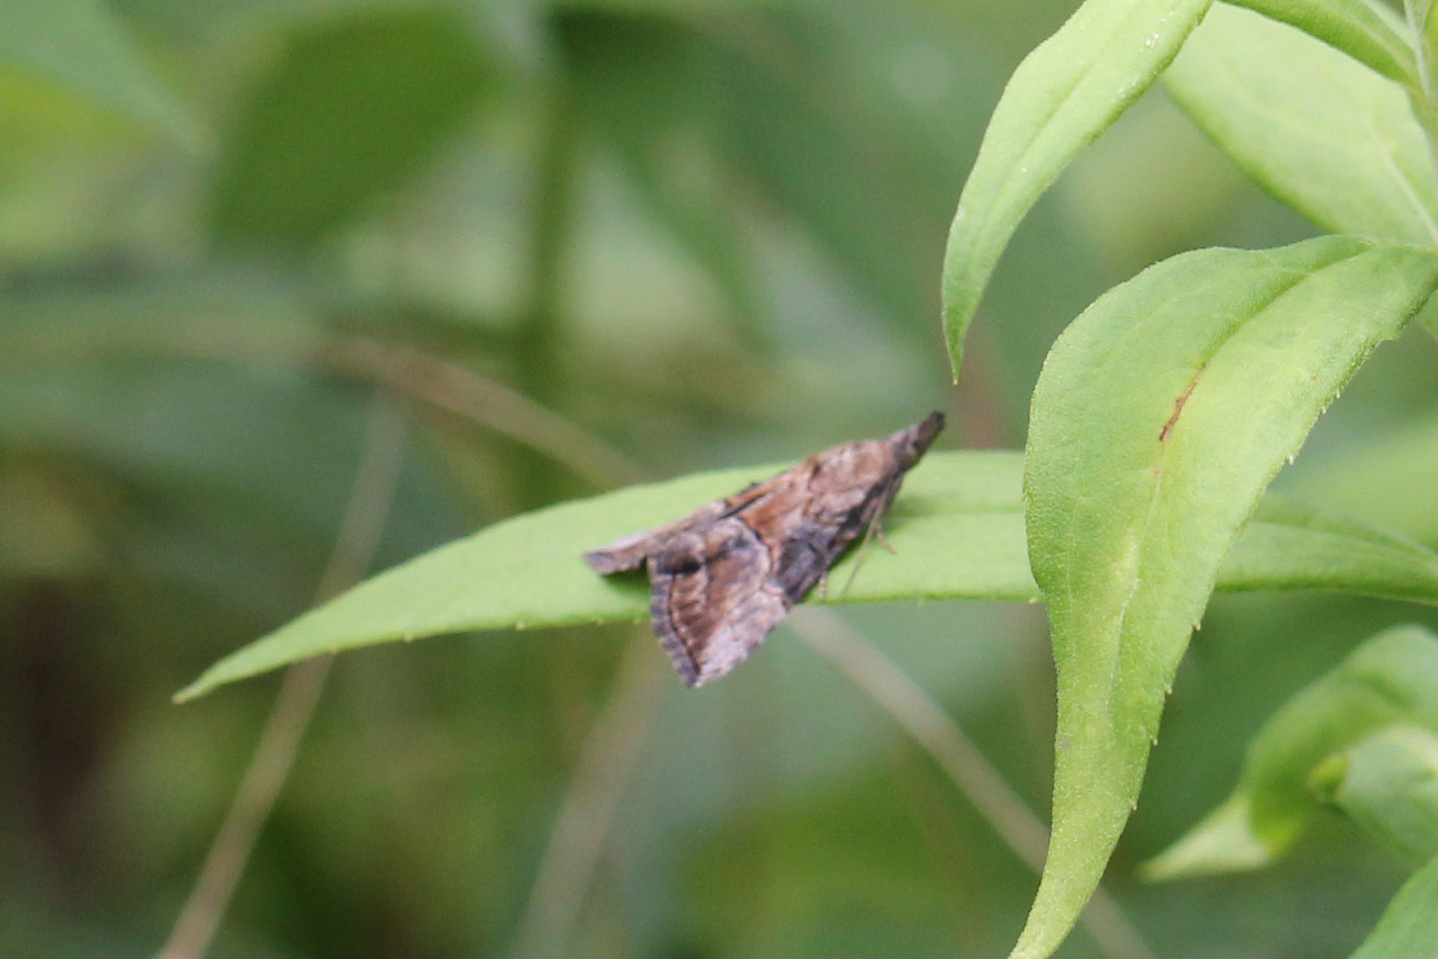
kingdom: Animalia
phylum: Arthropoda
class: Insecta
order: Lepidoptera
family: Erebidae
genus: Hypena
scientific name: Hypena scabra
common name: Green cloverworm
